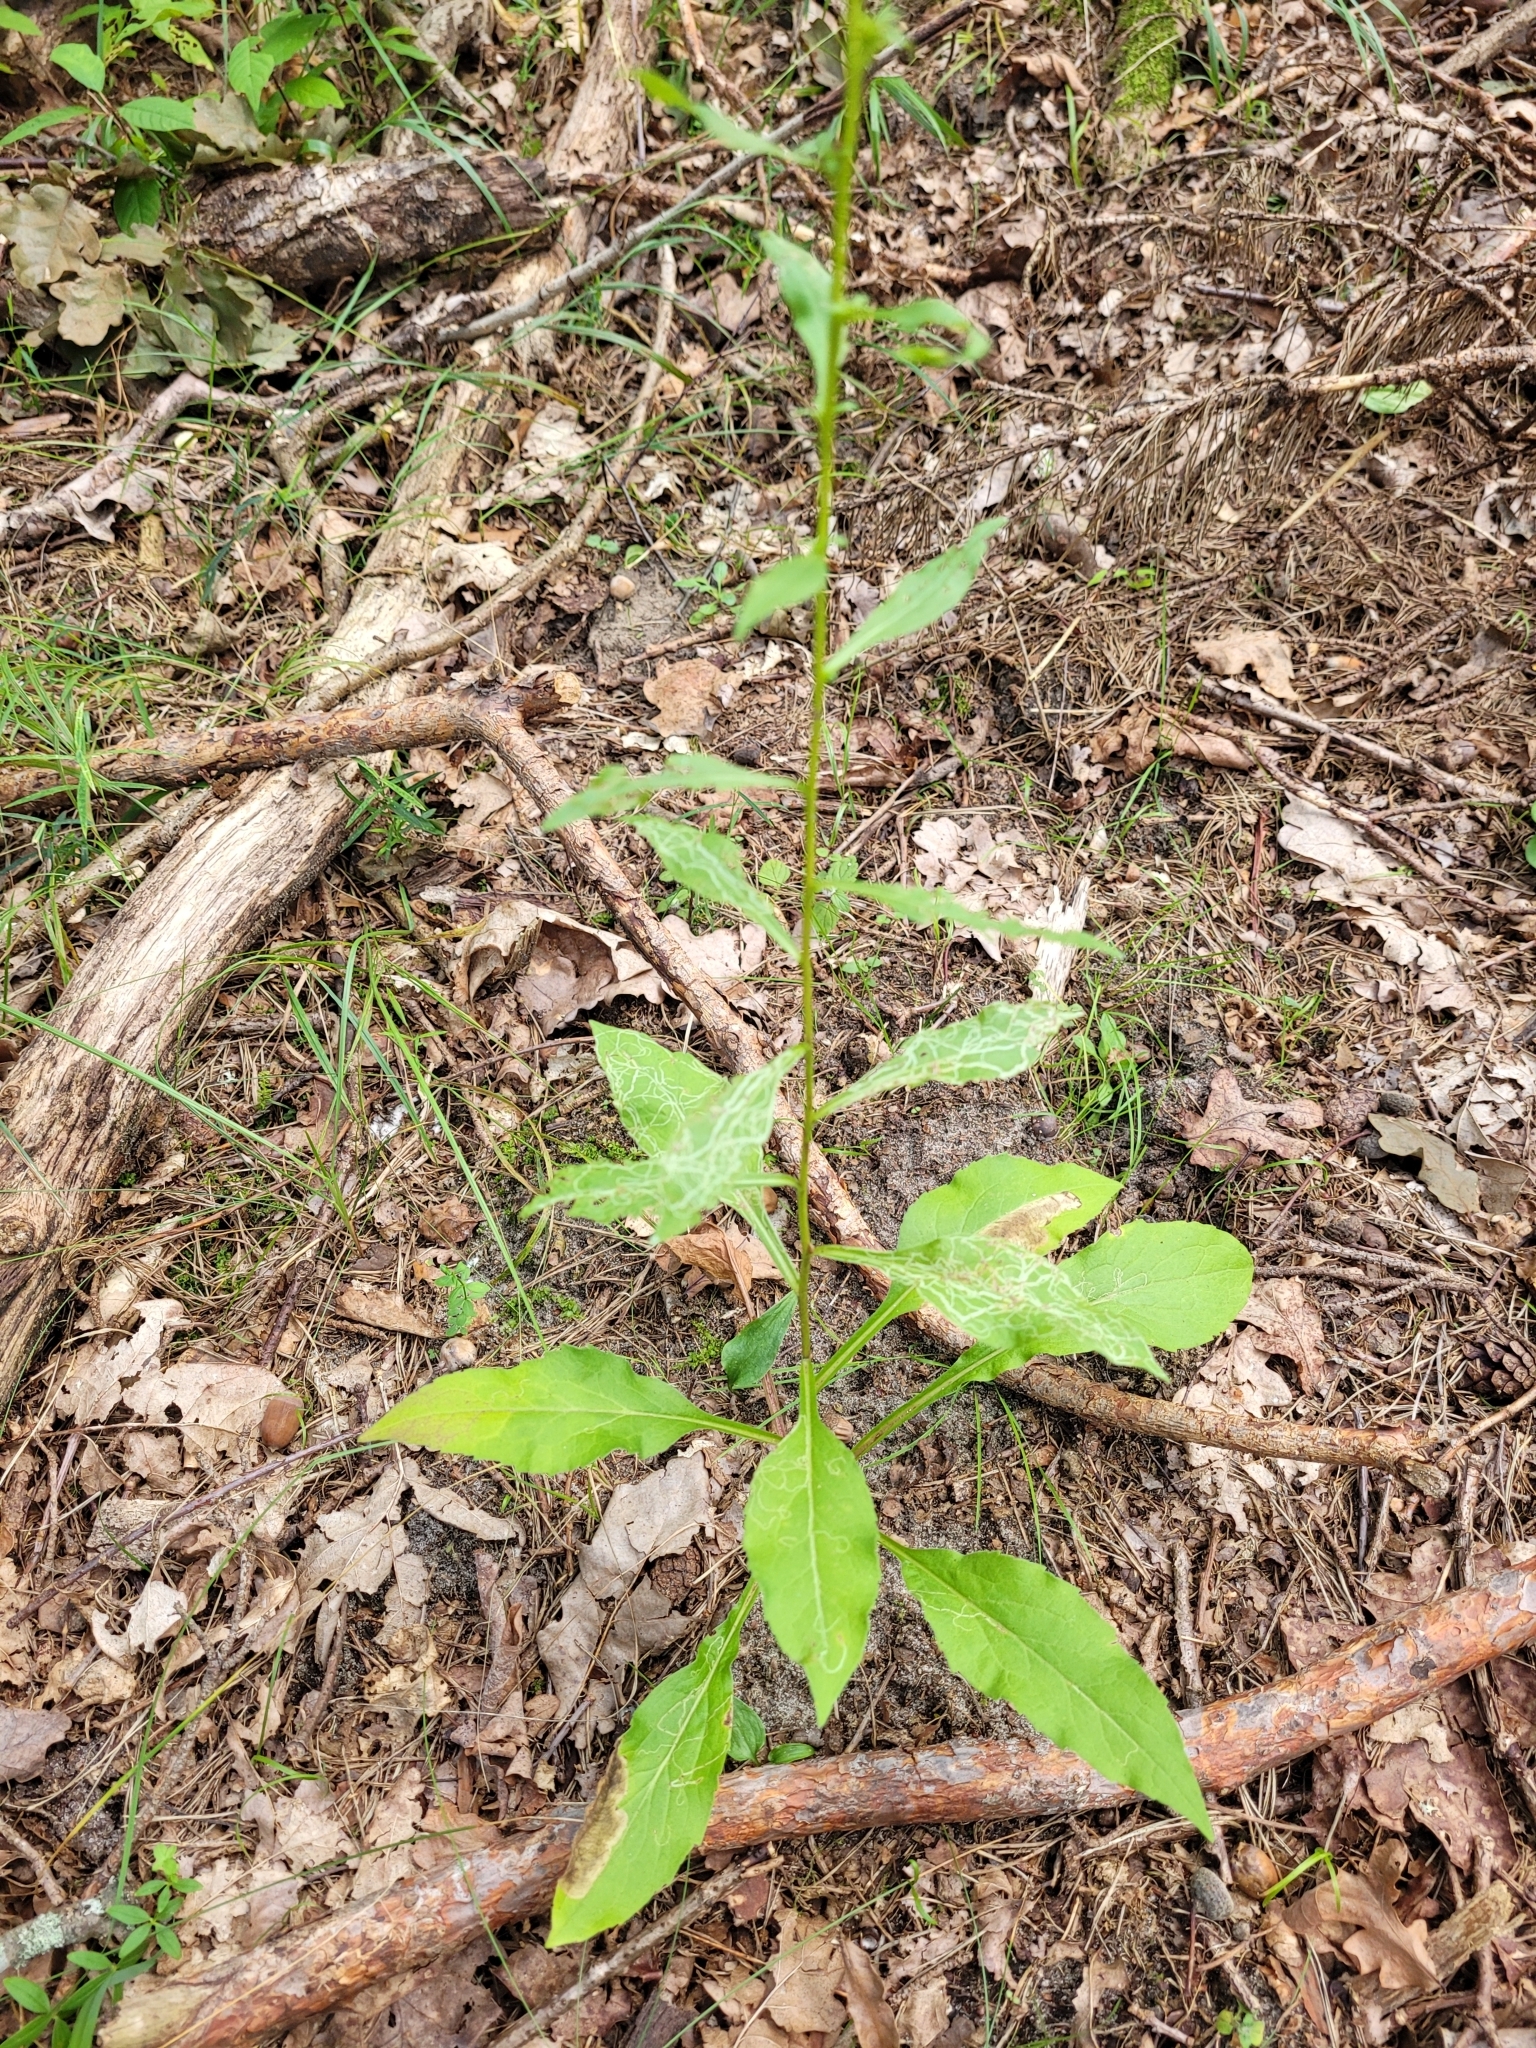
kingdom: Plantae
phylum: Tracheophyta
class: Magnoliopsida
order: Asterales
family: Asteraceae
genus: Solidago
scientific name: Solidago virgaurea
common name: Goldenrod
